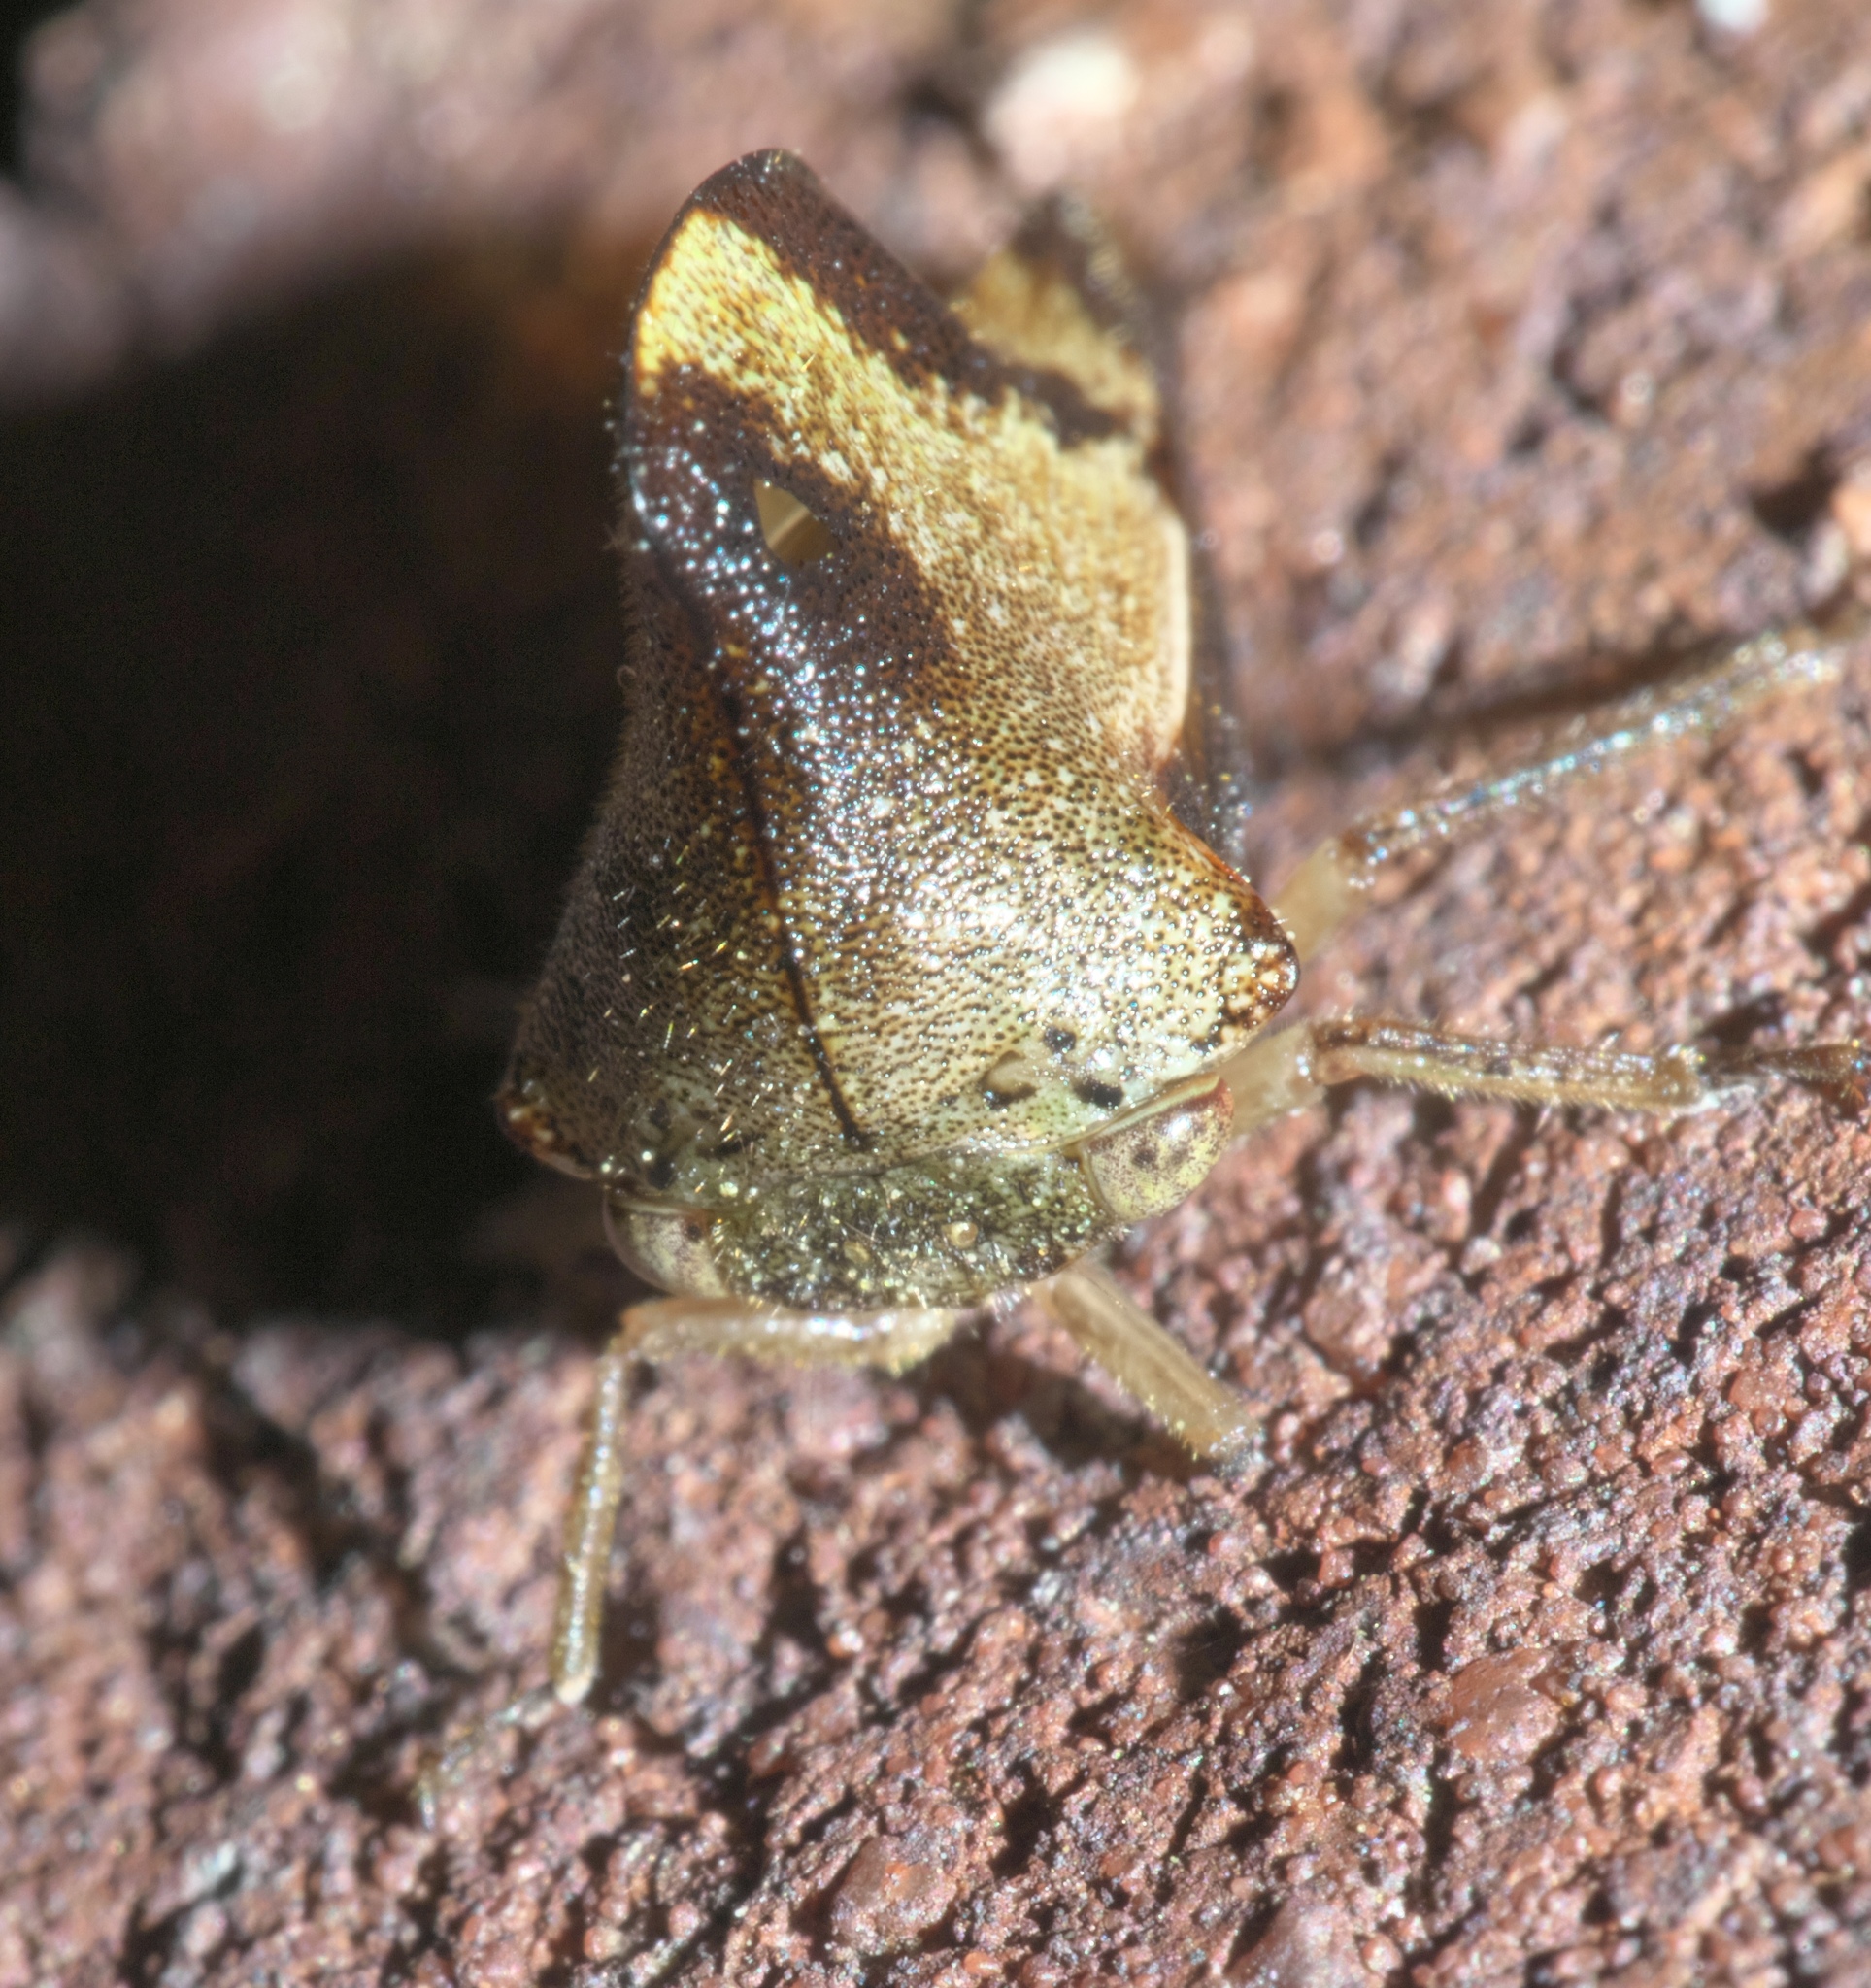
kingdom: Animalia
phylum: Arthropoda
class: Insecta
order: Hemiptera
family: Membracidae
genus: Helonica
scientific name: Helonica excelsa
